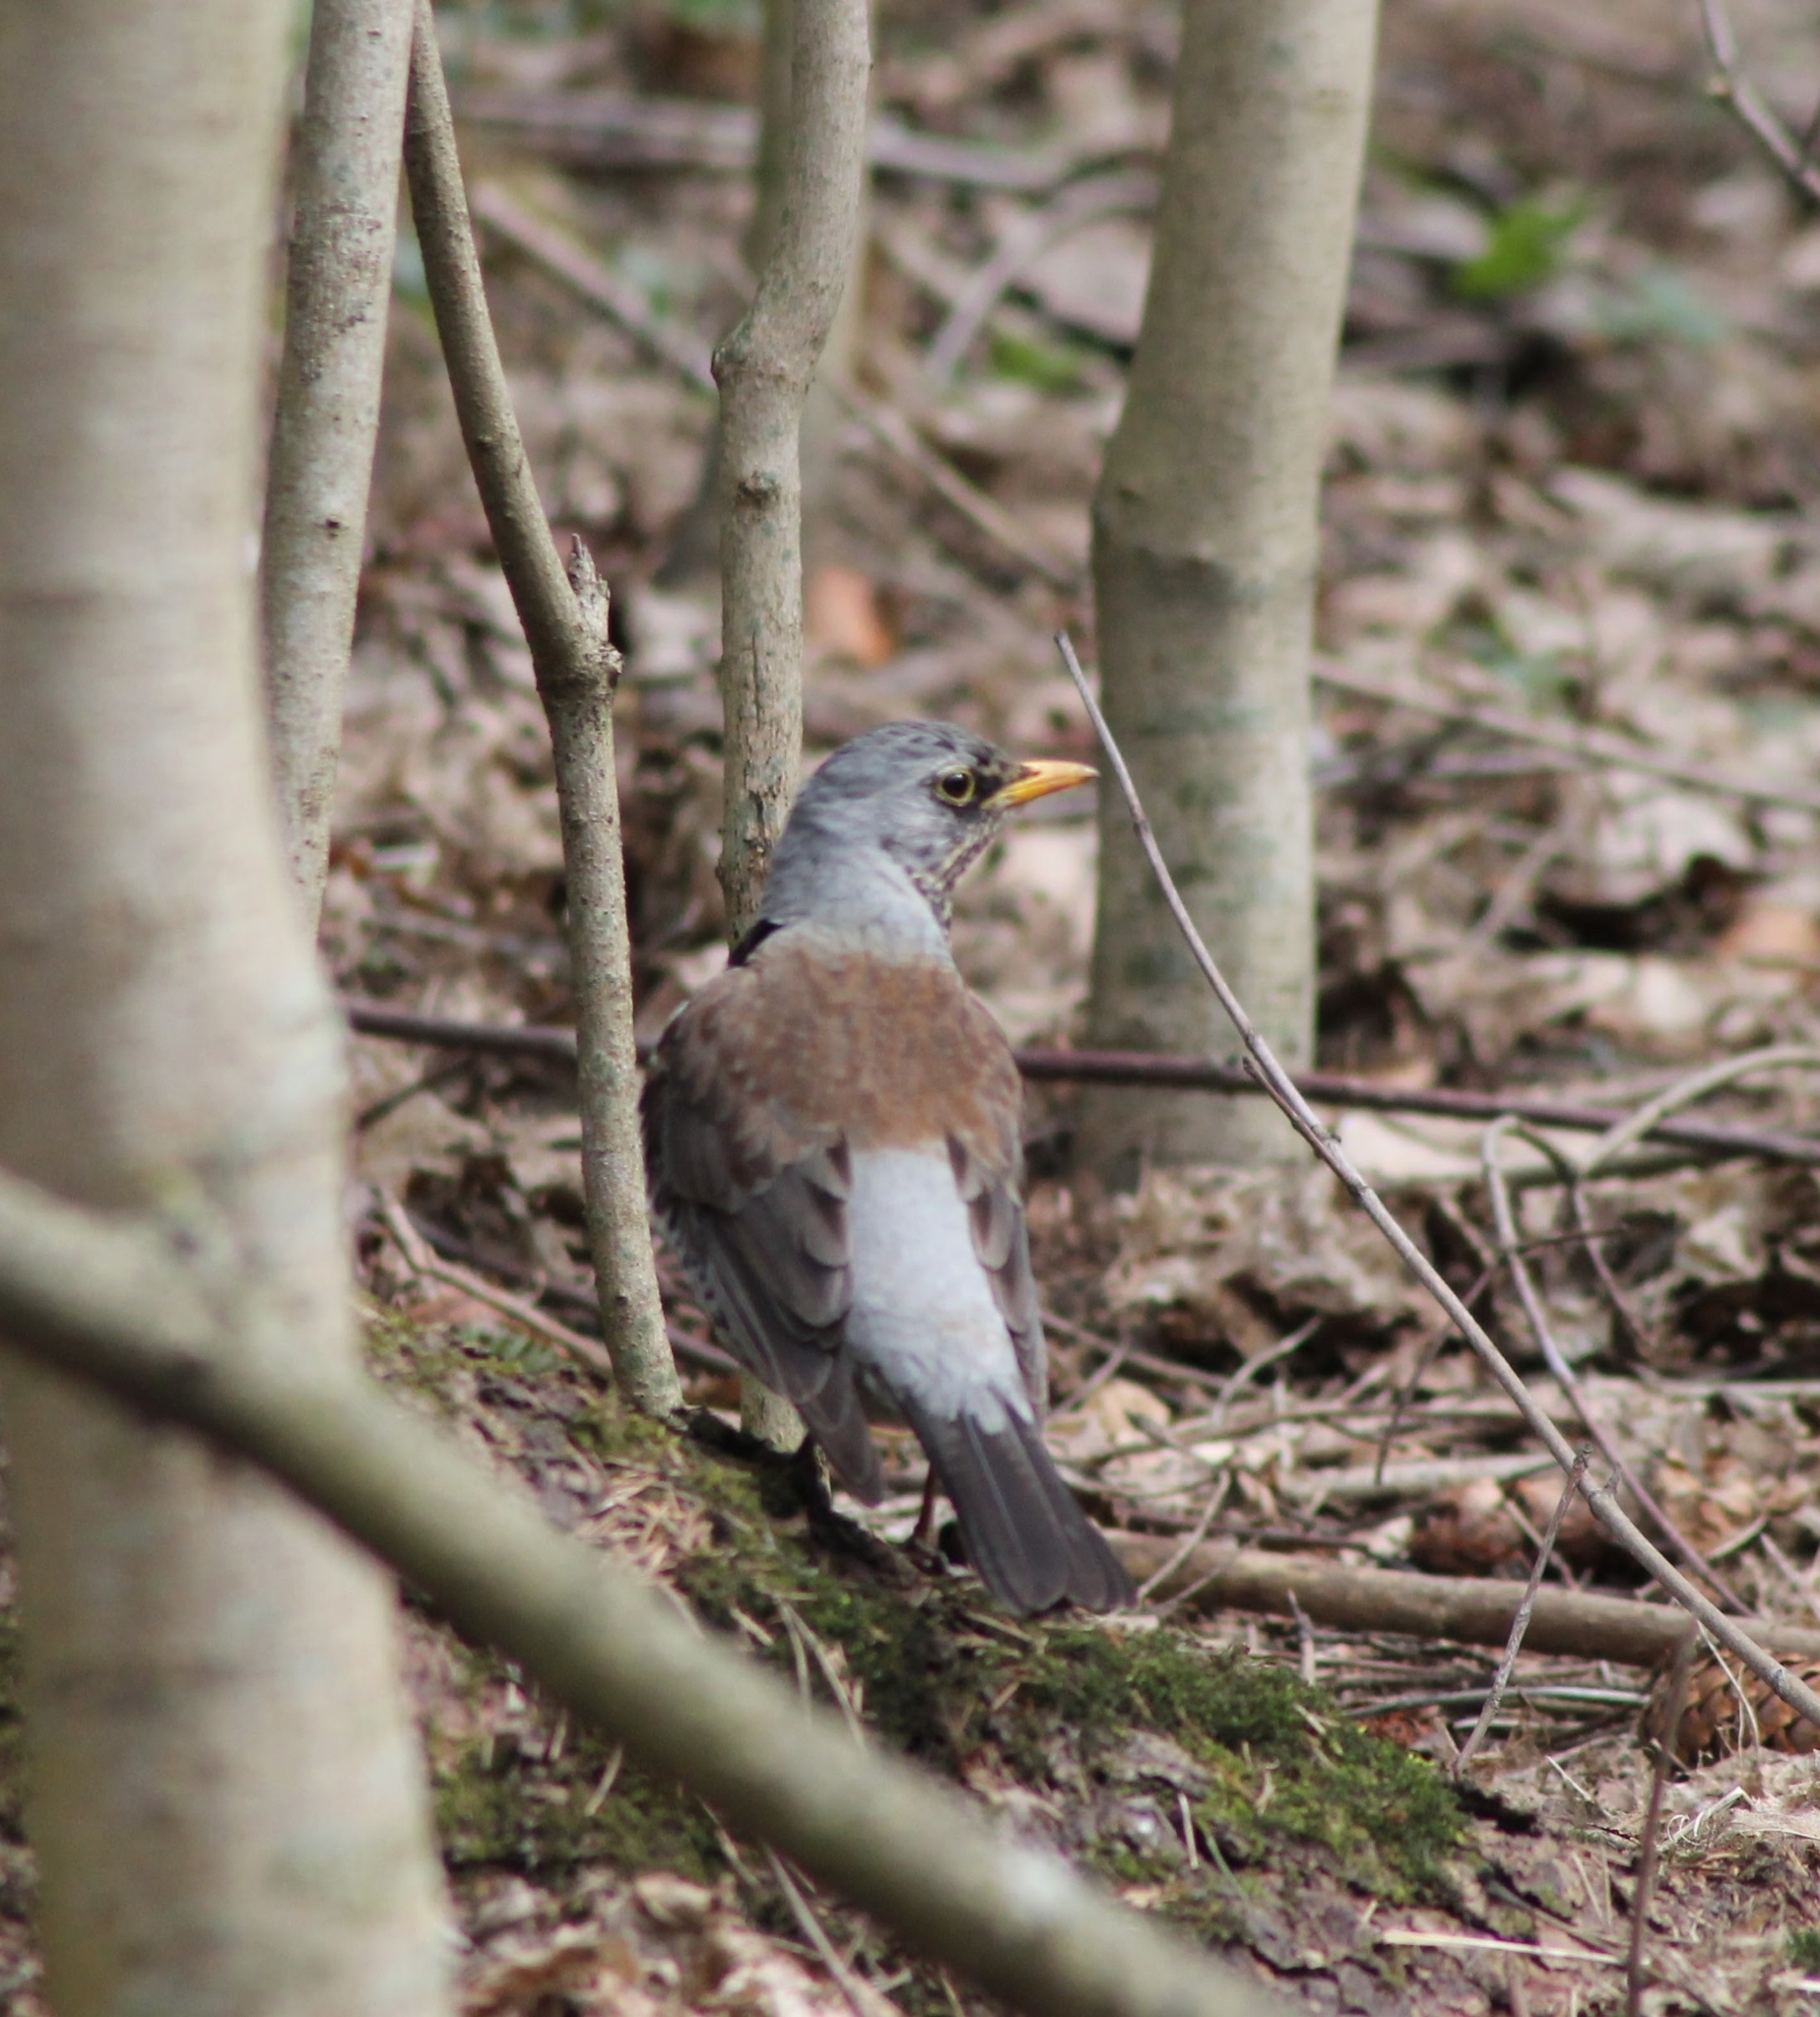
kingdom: Animalia
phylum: Chordata
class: Aves
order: Passeriformes
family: Turdidae
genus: Turdus
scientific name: Turdus pilaris
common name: Fieldfare
